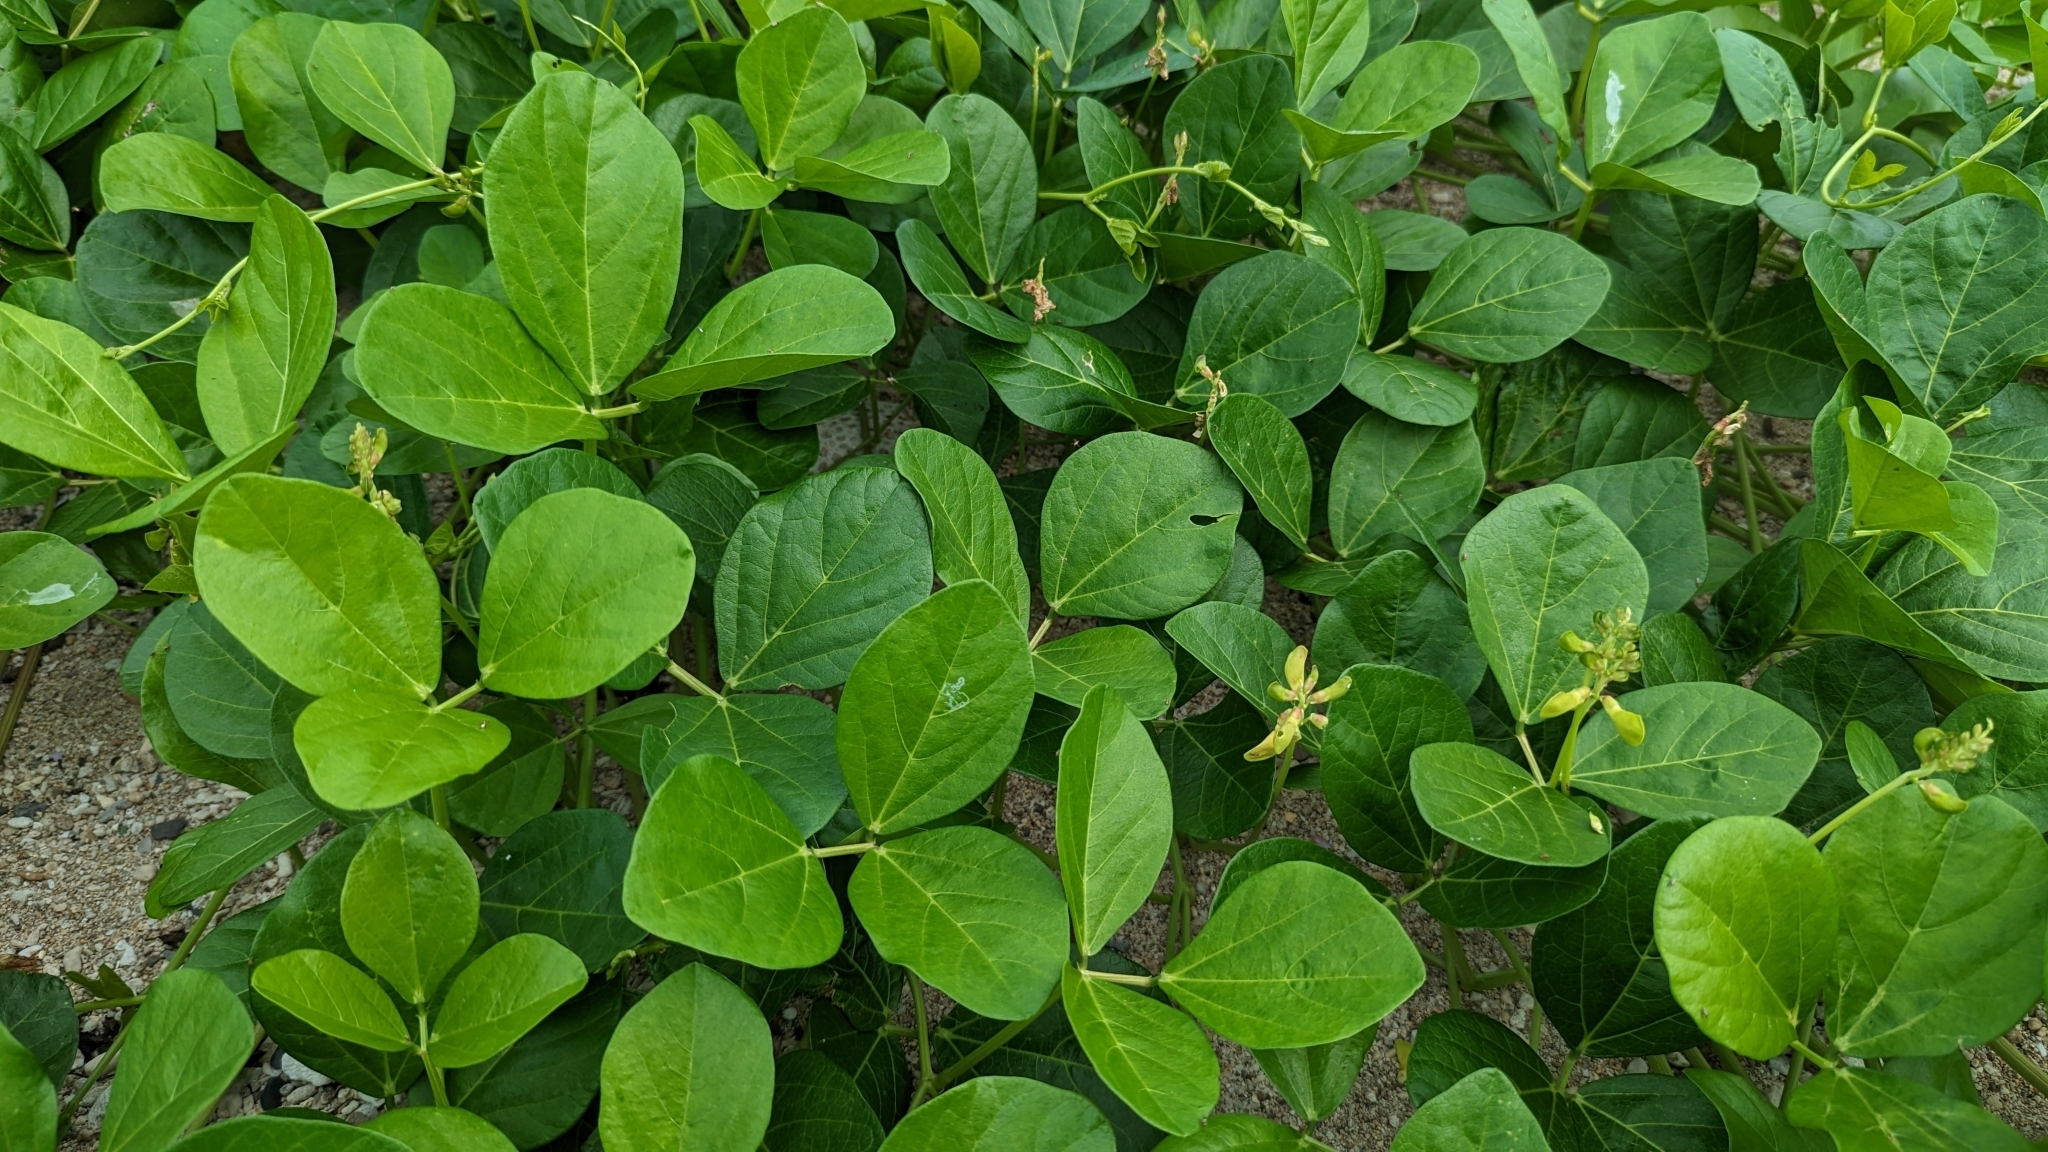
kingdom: Plantae
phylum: Tracheophyta
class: Magnoliopsida
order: Fabales
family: Fabaceae
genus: Vigna
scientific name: Vigna marina
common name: Dune-bean
